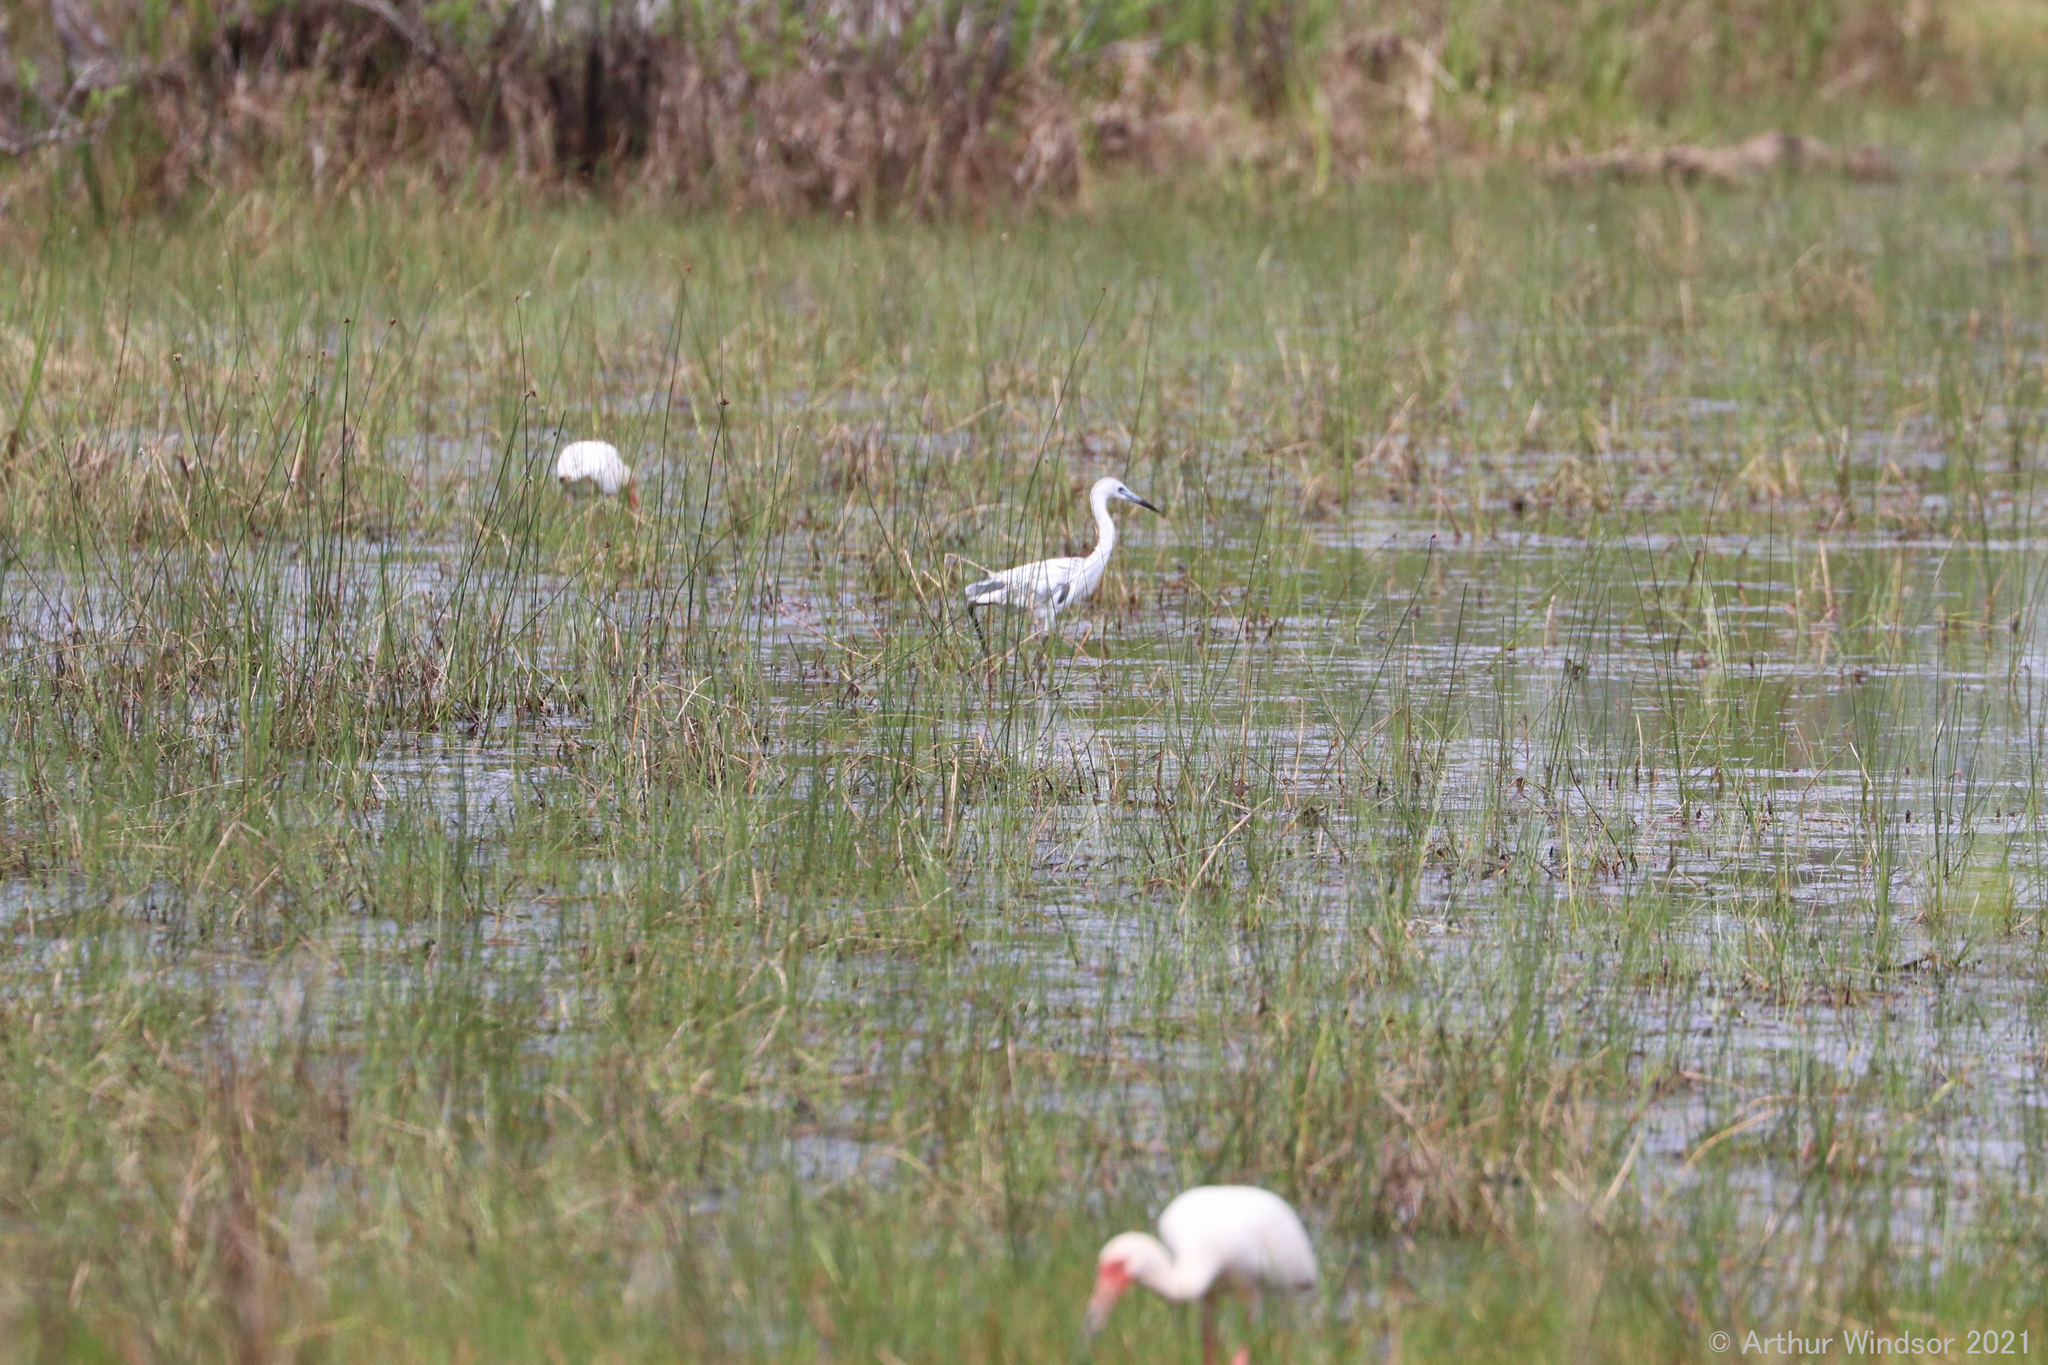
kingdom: Animalia
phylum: Chordata
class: Aves
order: Pelecaniformes
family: Ardeidae
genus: Egretta
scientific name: Egretta caerulea
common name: Little blue heron
